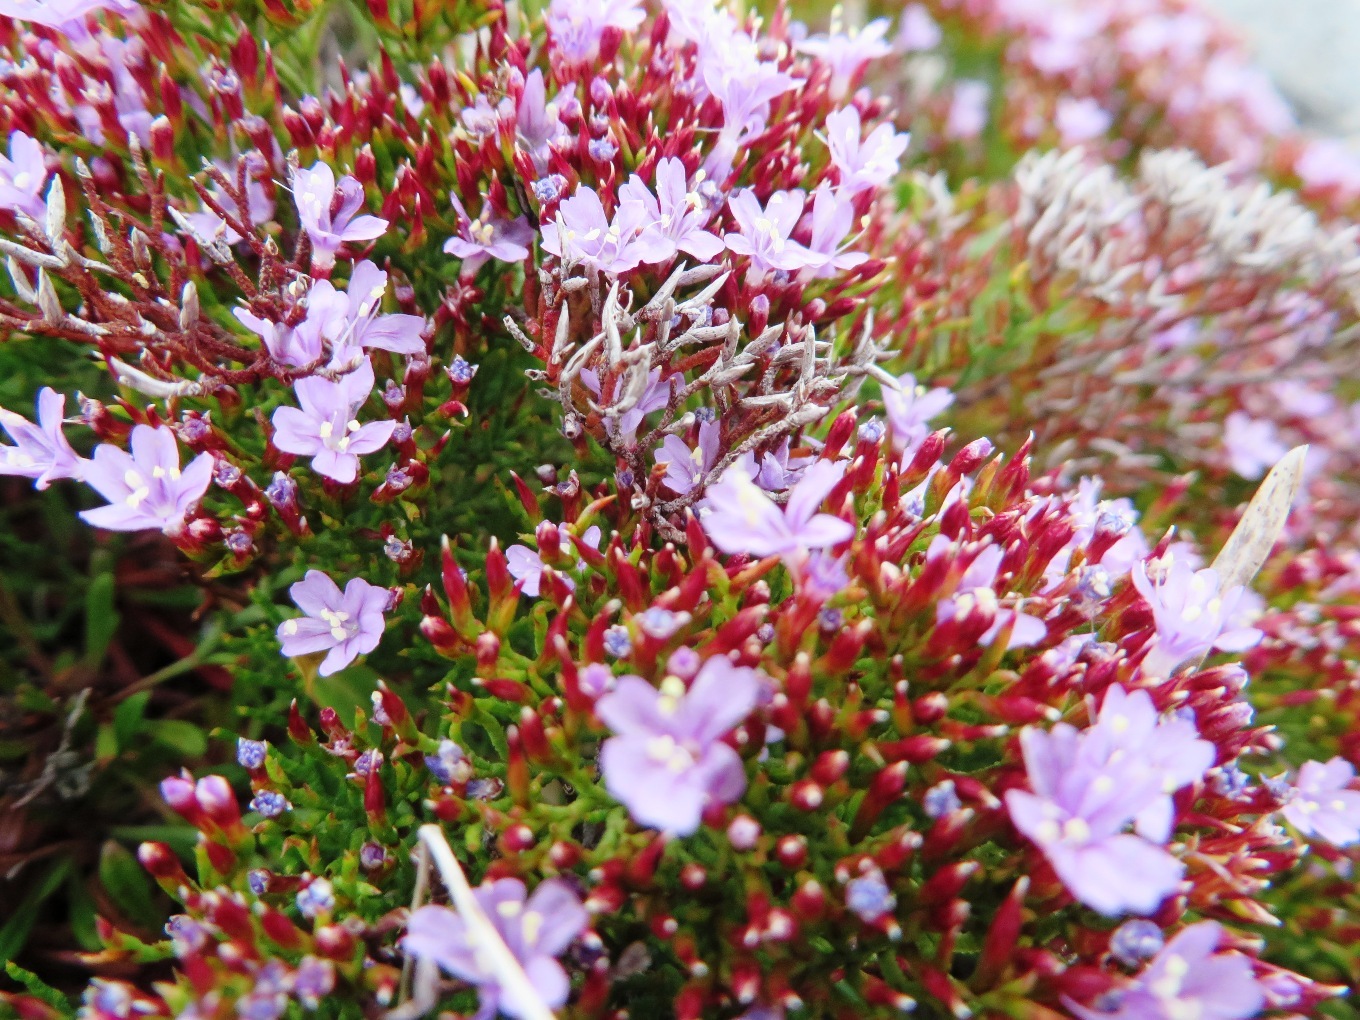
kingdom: Plantae
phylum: Tracheophyta
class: Magnoliopsida
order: Caryophyllales
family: Plumbaginaceae
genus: Limonium
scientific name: Limonium scabrum
